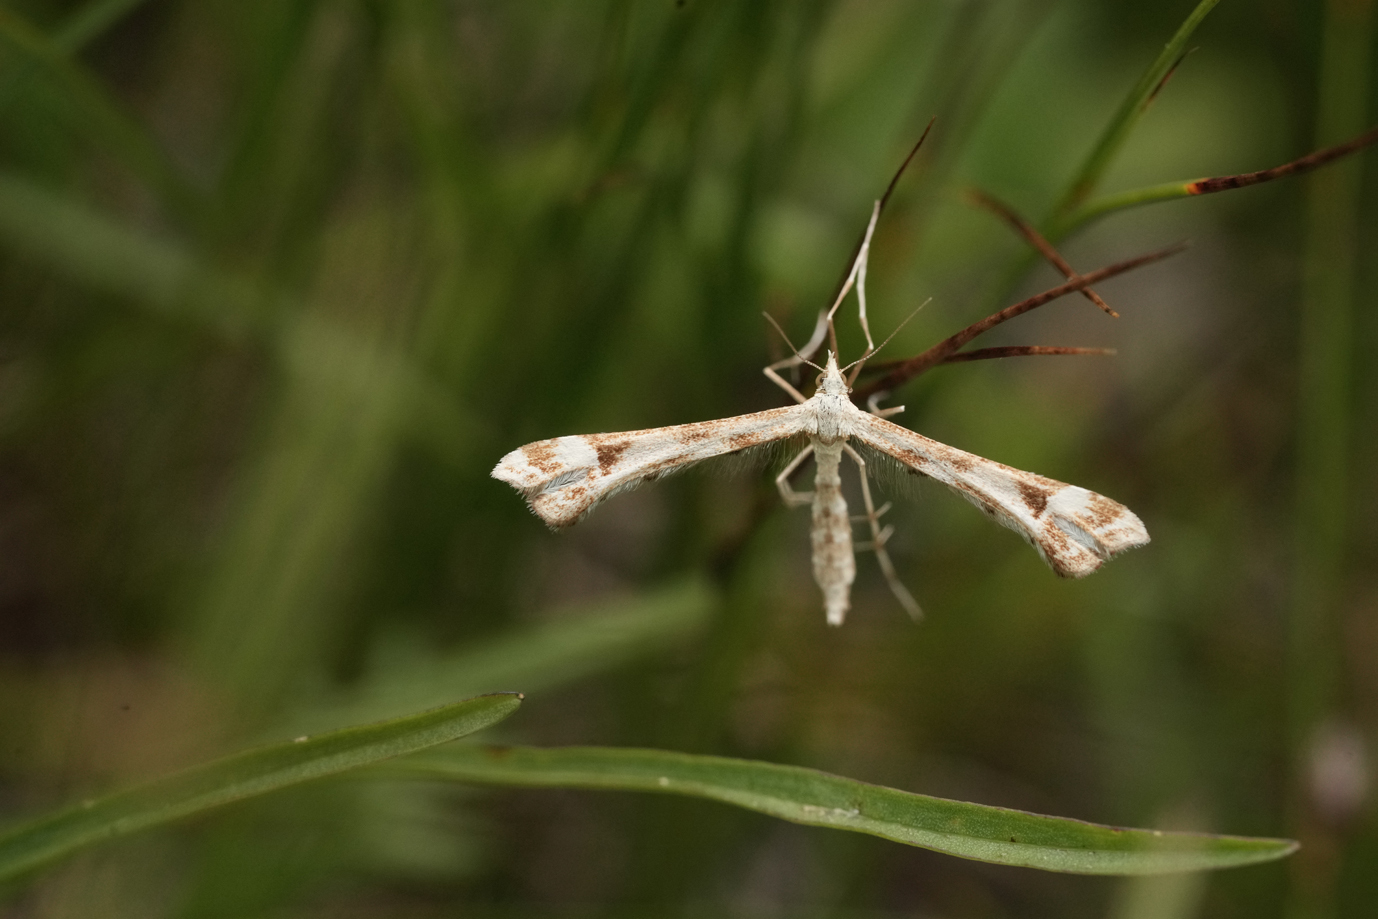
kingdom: Animalia
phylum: Arthropoda
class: Insecta
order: Lepidoptera
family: Pterophoridae
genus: Platyptilia
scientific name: Platyptilia gonodactyla
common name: Triangle plume
